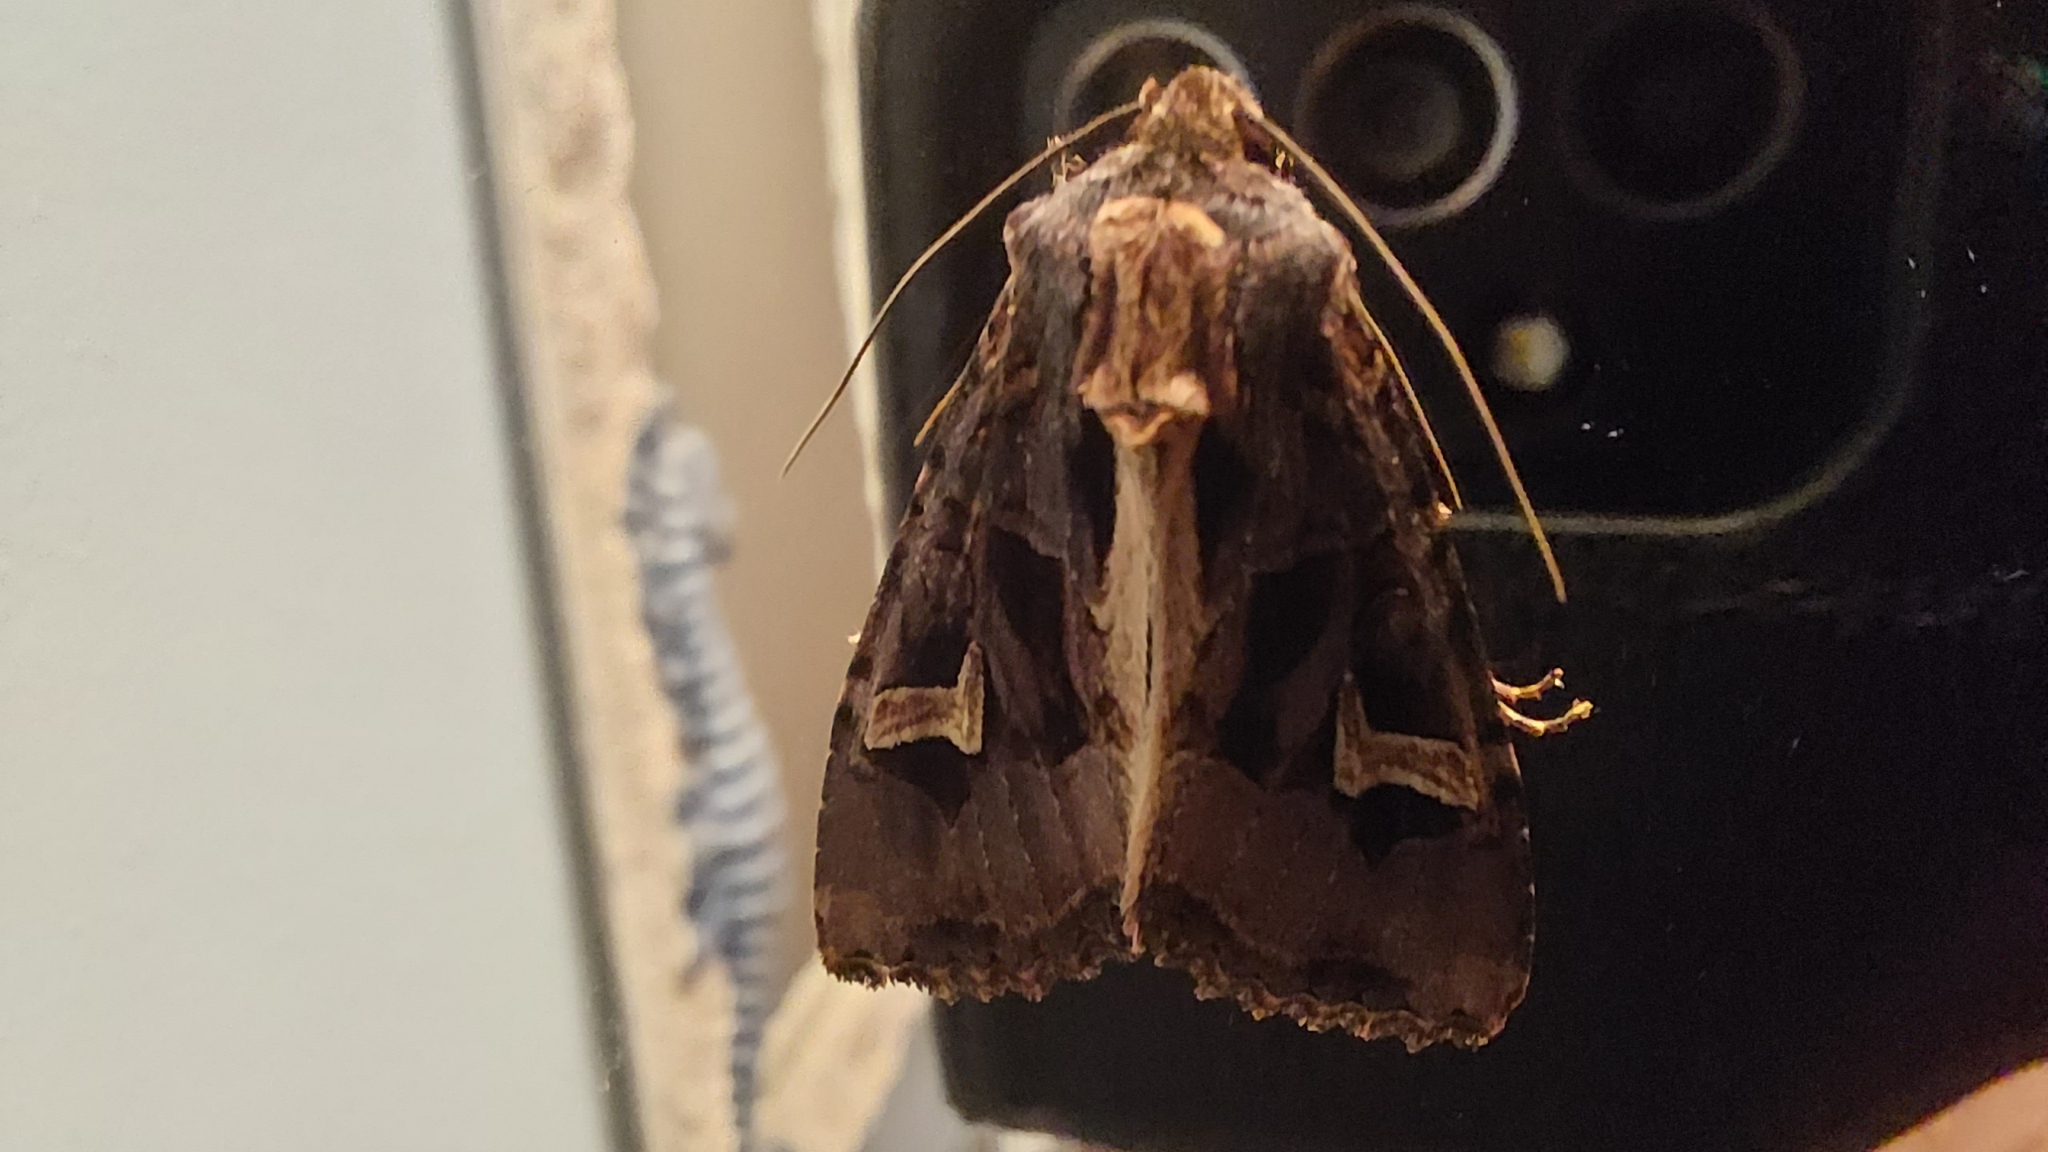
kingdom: Animalia
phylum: Arthropoda
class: Insecta
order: Lepidoptera
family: Noctuidae
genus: Trigonophora
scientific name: Trigonophora flammea
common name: Flame brocade
